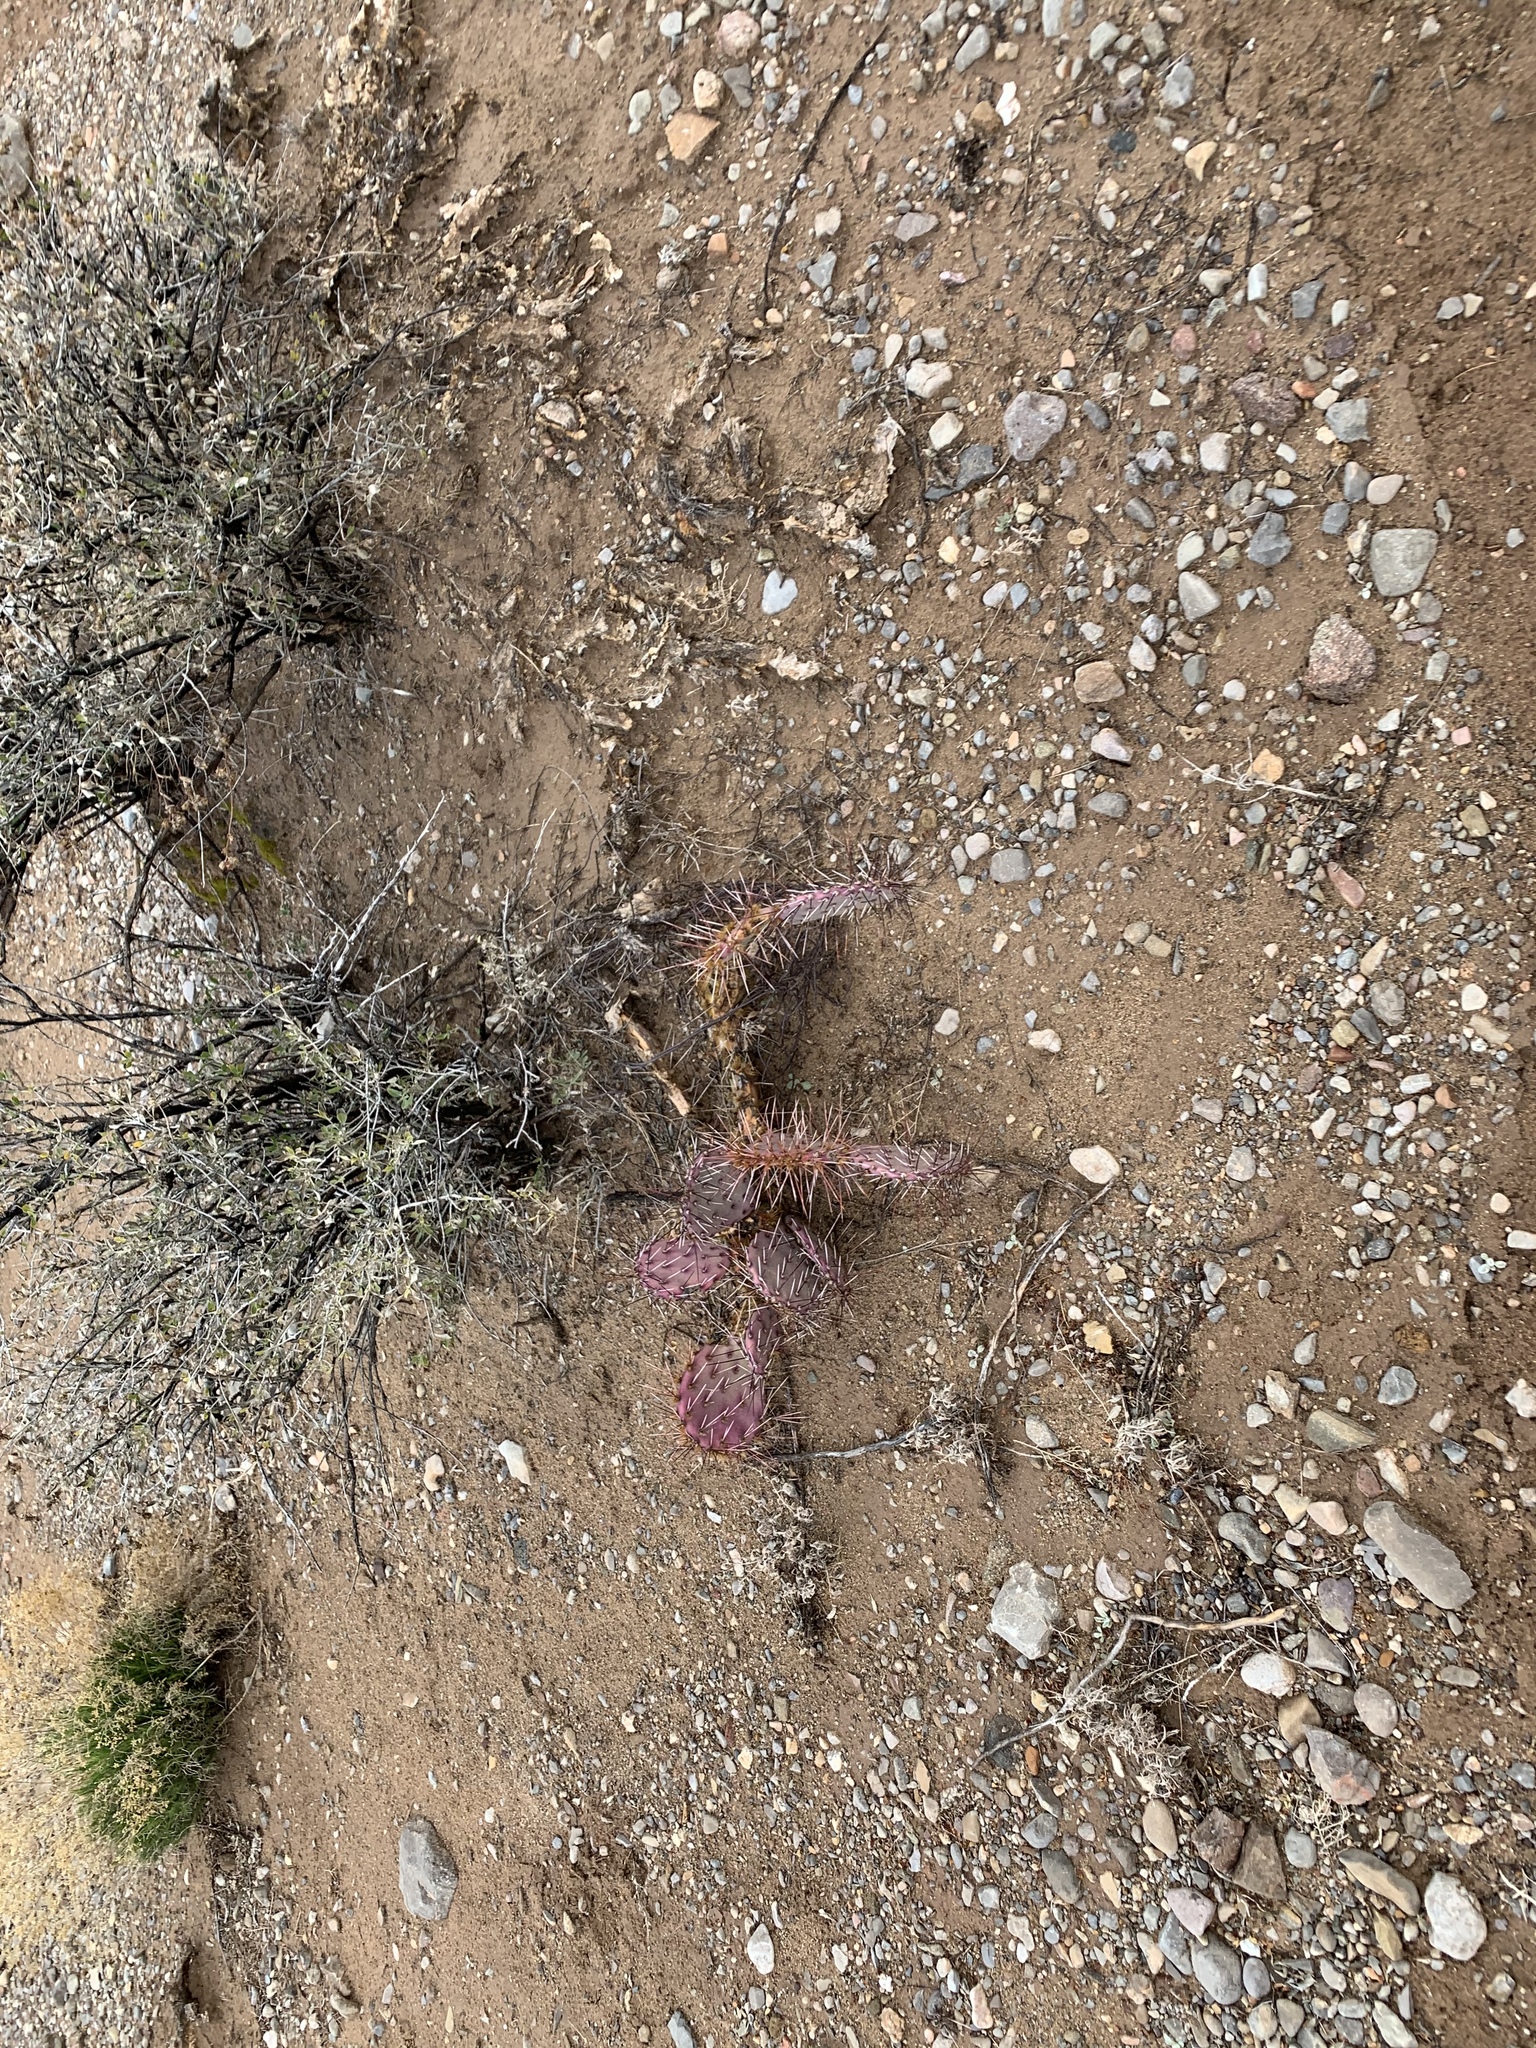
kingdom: Plantae
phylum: Tracheophyta
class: Magnoliopsida
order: Caryophyllales
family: Cactaceae
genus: Opuntia
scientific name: Opuntia macrocentra
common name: Purple prickly-pear
